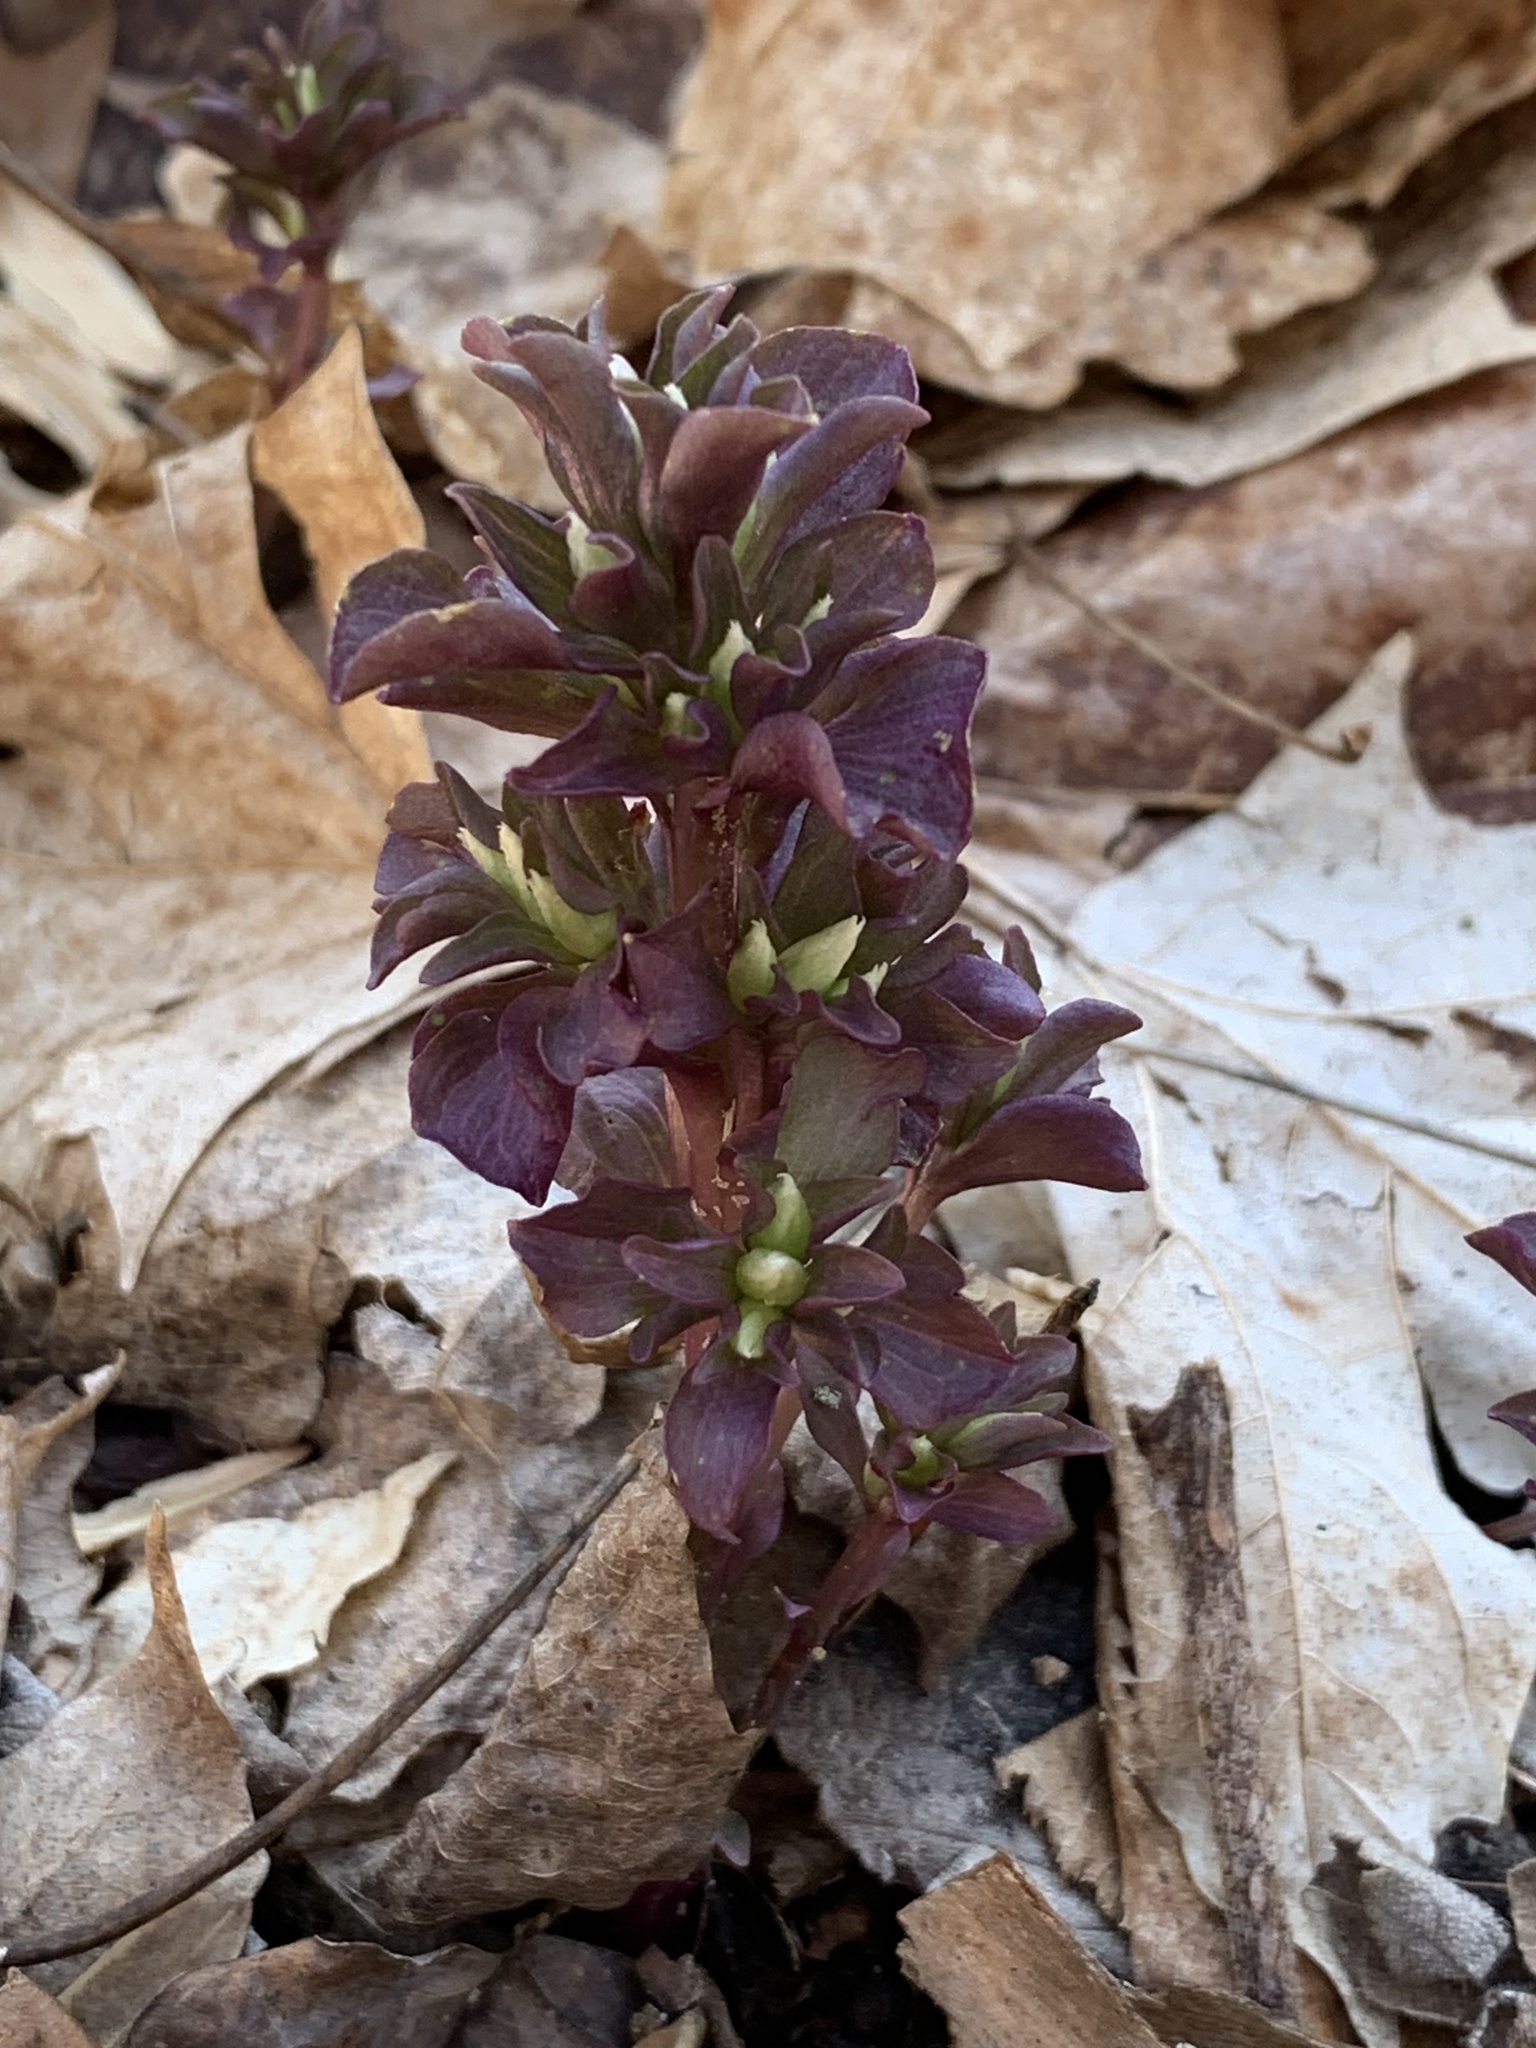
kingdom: Plantae
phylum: Tracheophyta
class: Magnoliopsida
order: Gentianales
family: Gentianaceae
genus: Obolaria
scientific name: Obolaria virginica
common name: Pennywort
